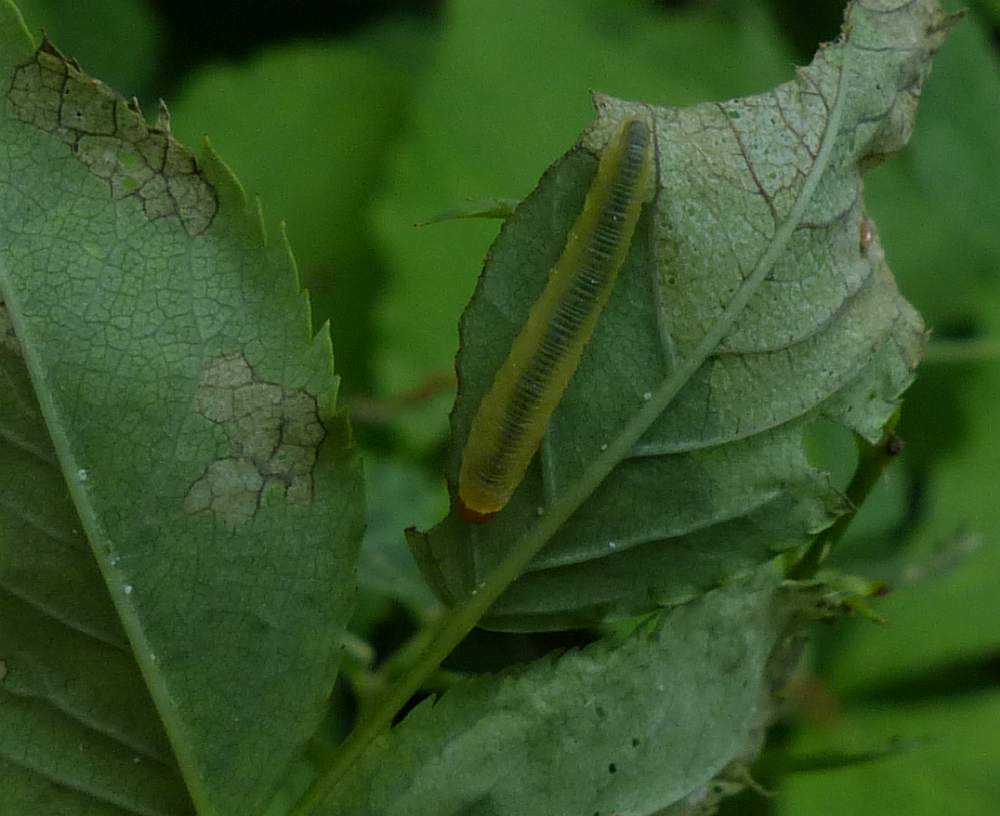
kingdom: Animalia
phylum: Arthropoda
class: Insecta
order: Hymenoptera
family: Tenthredinidae
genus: Endelomyia
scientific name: Endelomyia aethiops
